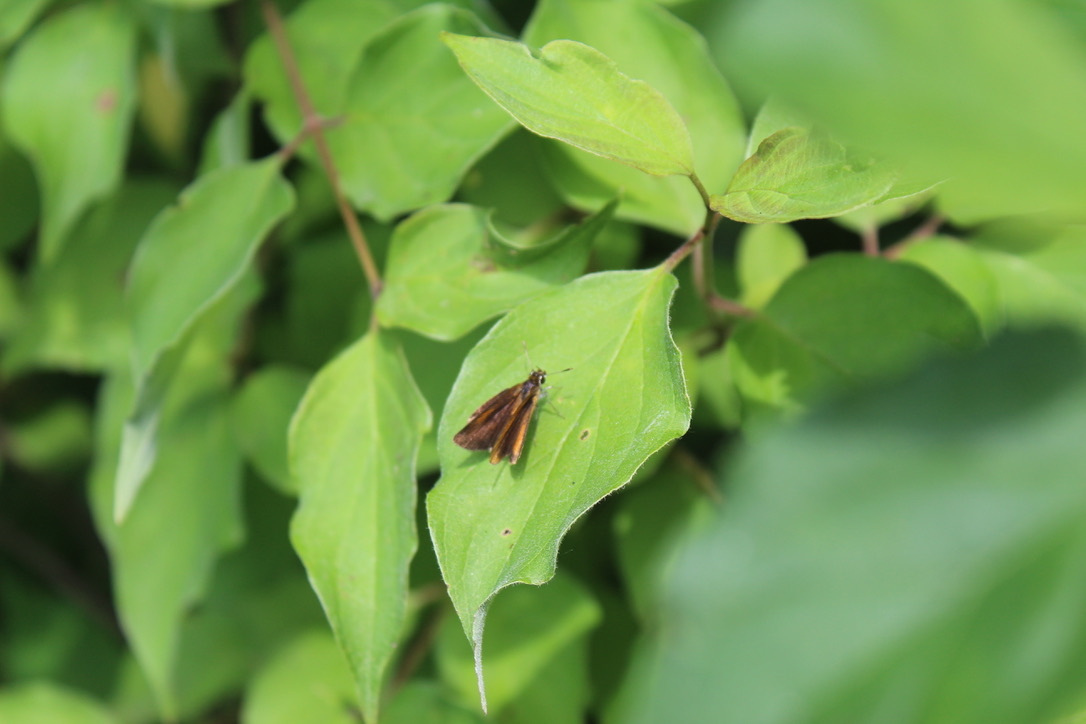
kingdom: Animalia
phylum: Arthropoda
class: Insecta
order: Lepidoptera
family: Hesperiidae
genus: Ancyloxypha
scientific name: Ancyloxypha numitor
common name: Least skipper
